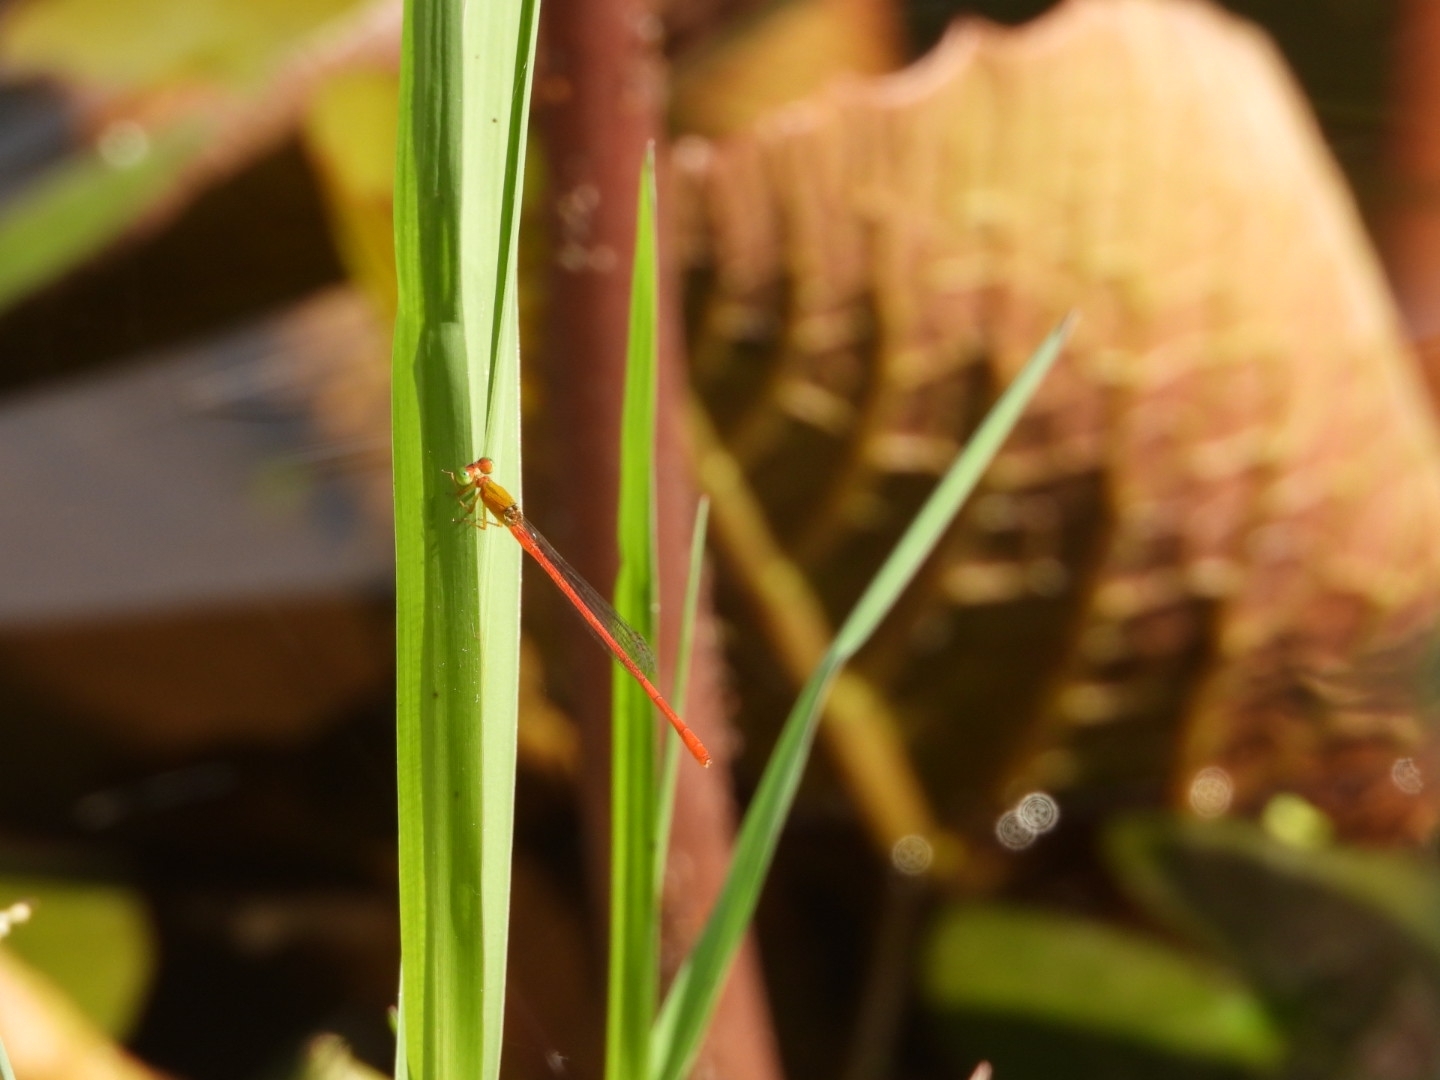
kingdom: Animalia
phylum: Arthropoda
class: Insecta
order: Odonata
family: Coenagrionidae
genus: Ceriagrion
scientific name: Ceriagrion auranticum
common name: Orange-tailed sprite
